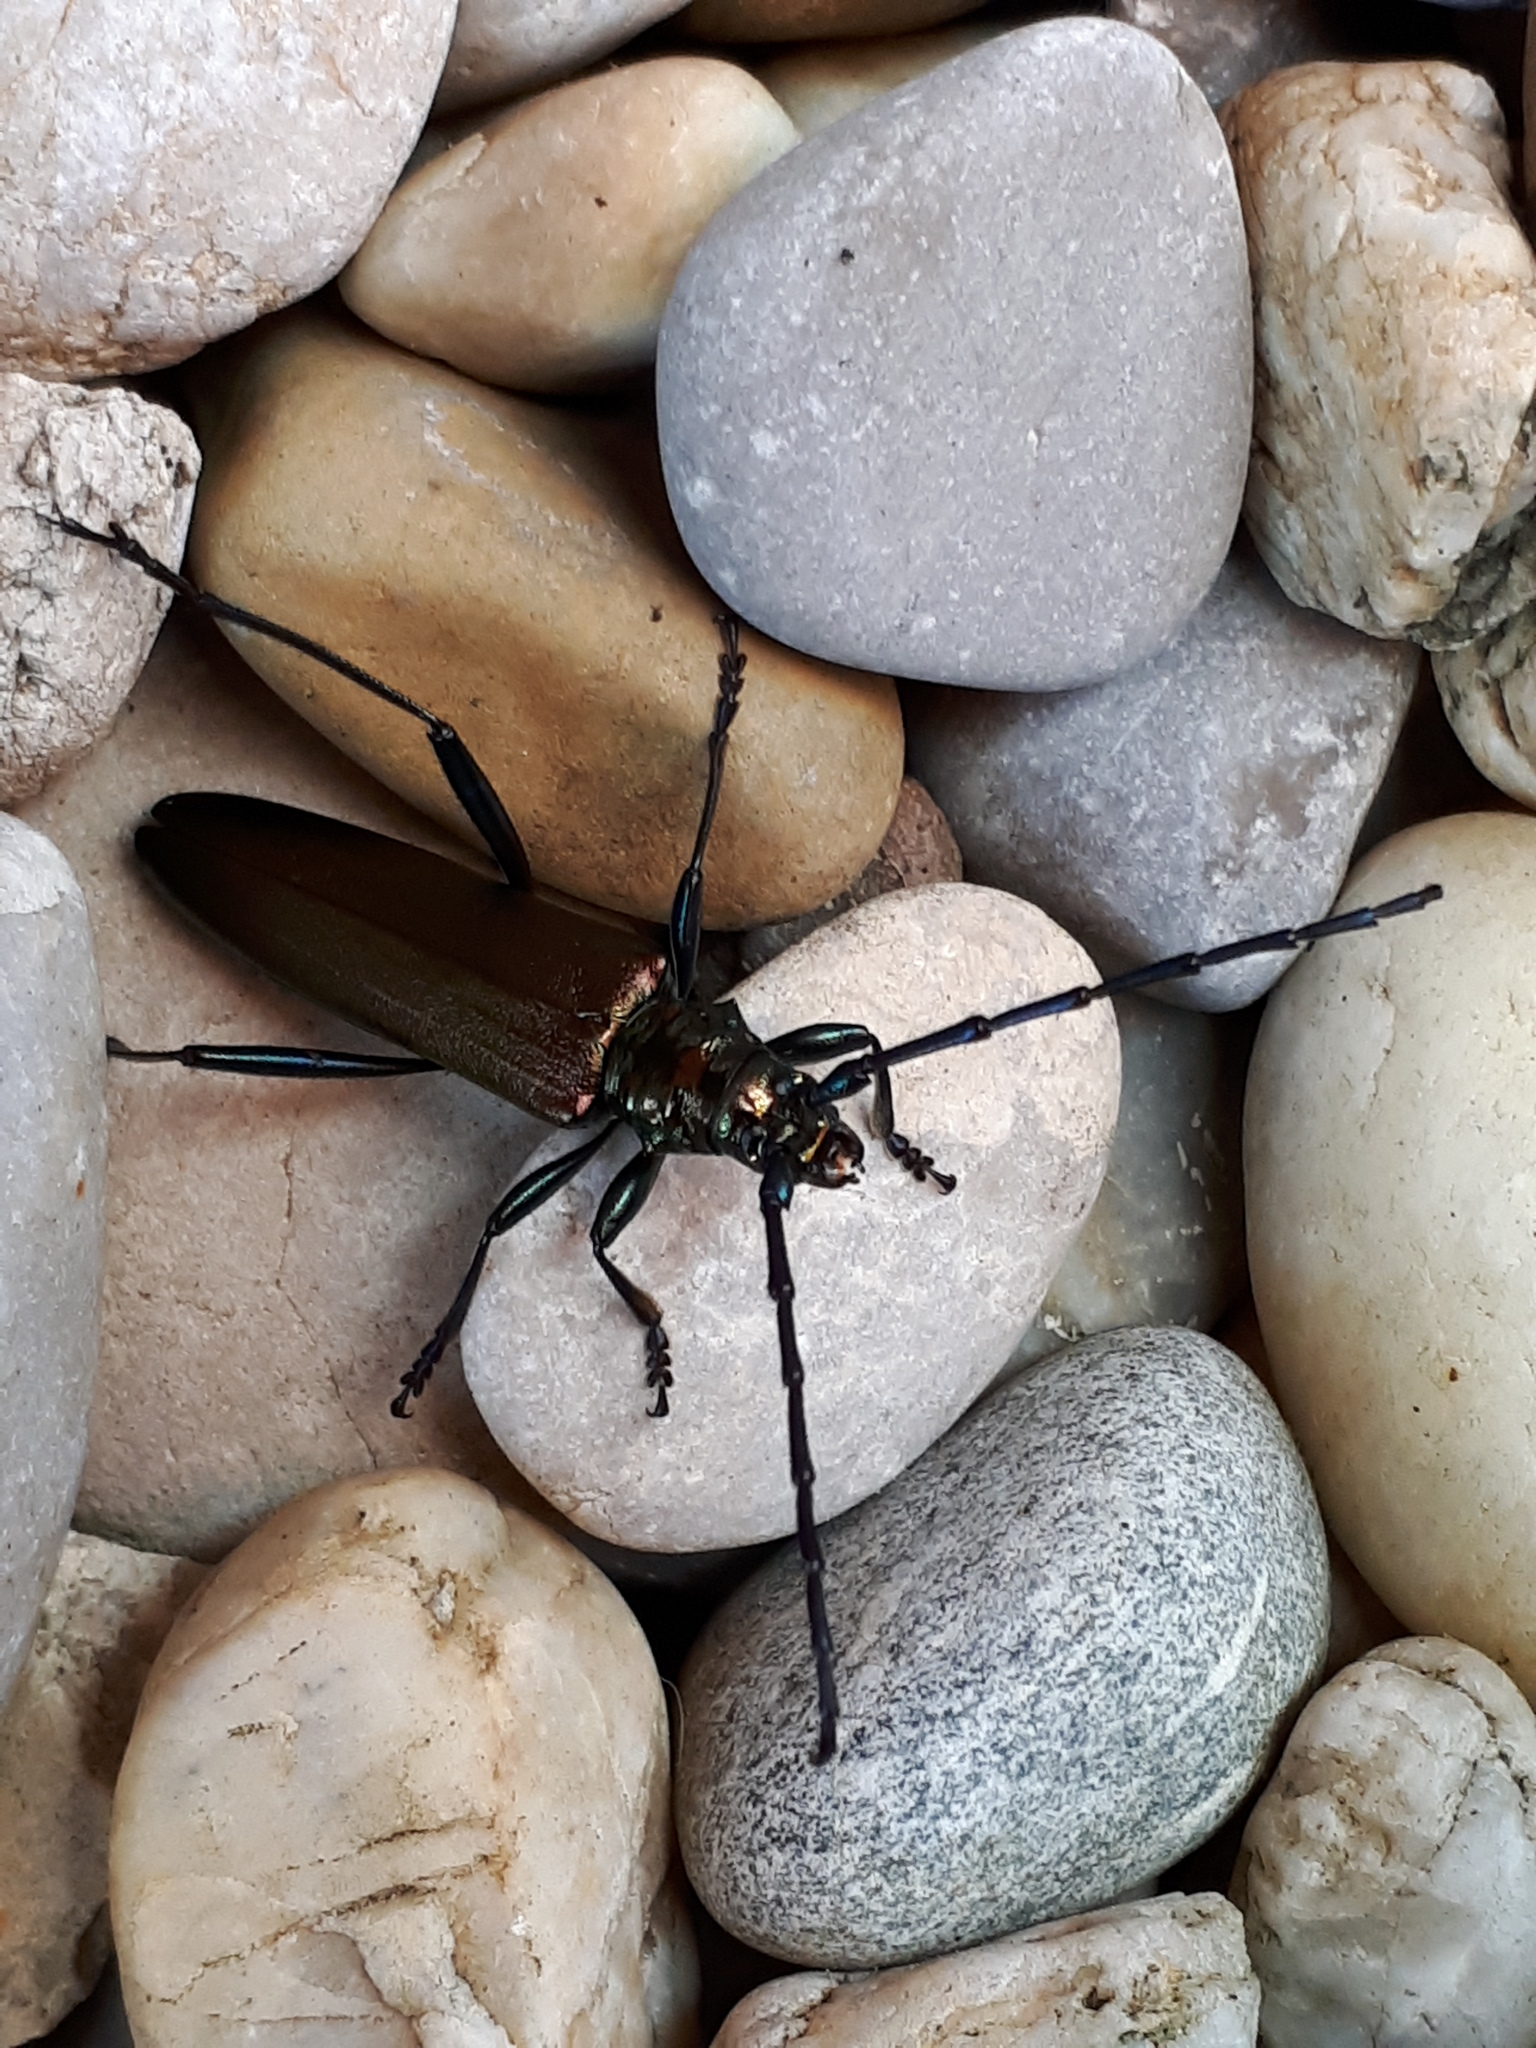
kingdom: Animalia
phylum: Arthropoda
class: Insecta
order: Coleoptera
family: Cerambycidae
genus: Aromia
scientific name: Aromia moschata
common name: Musk beetle
